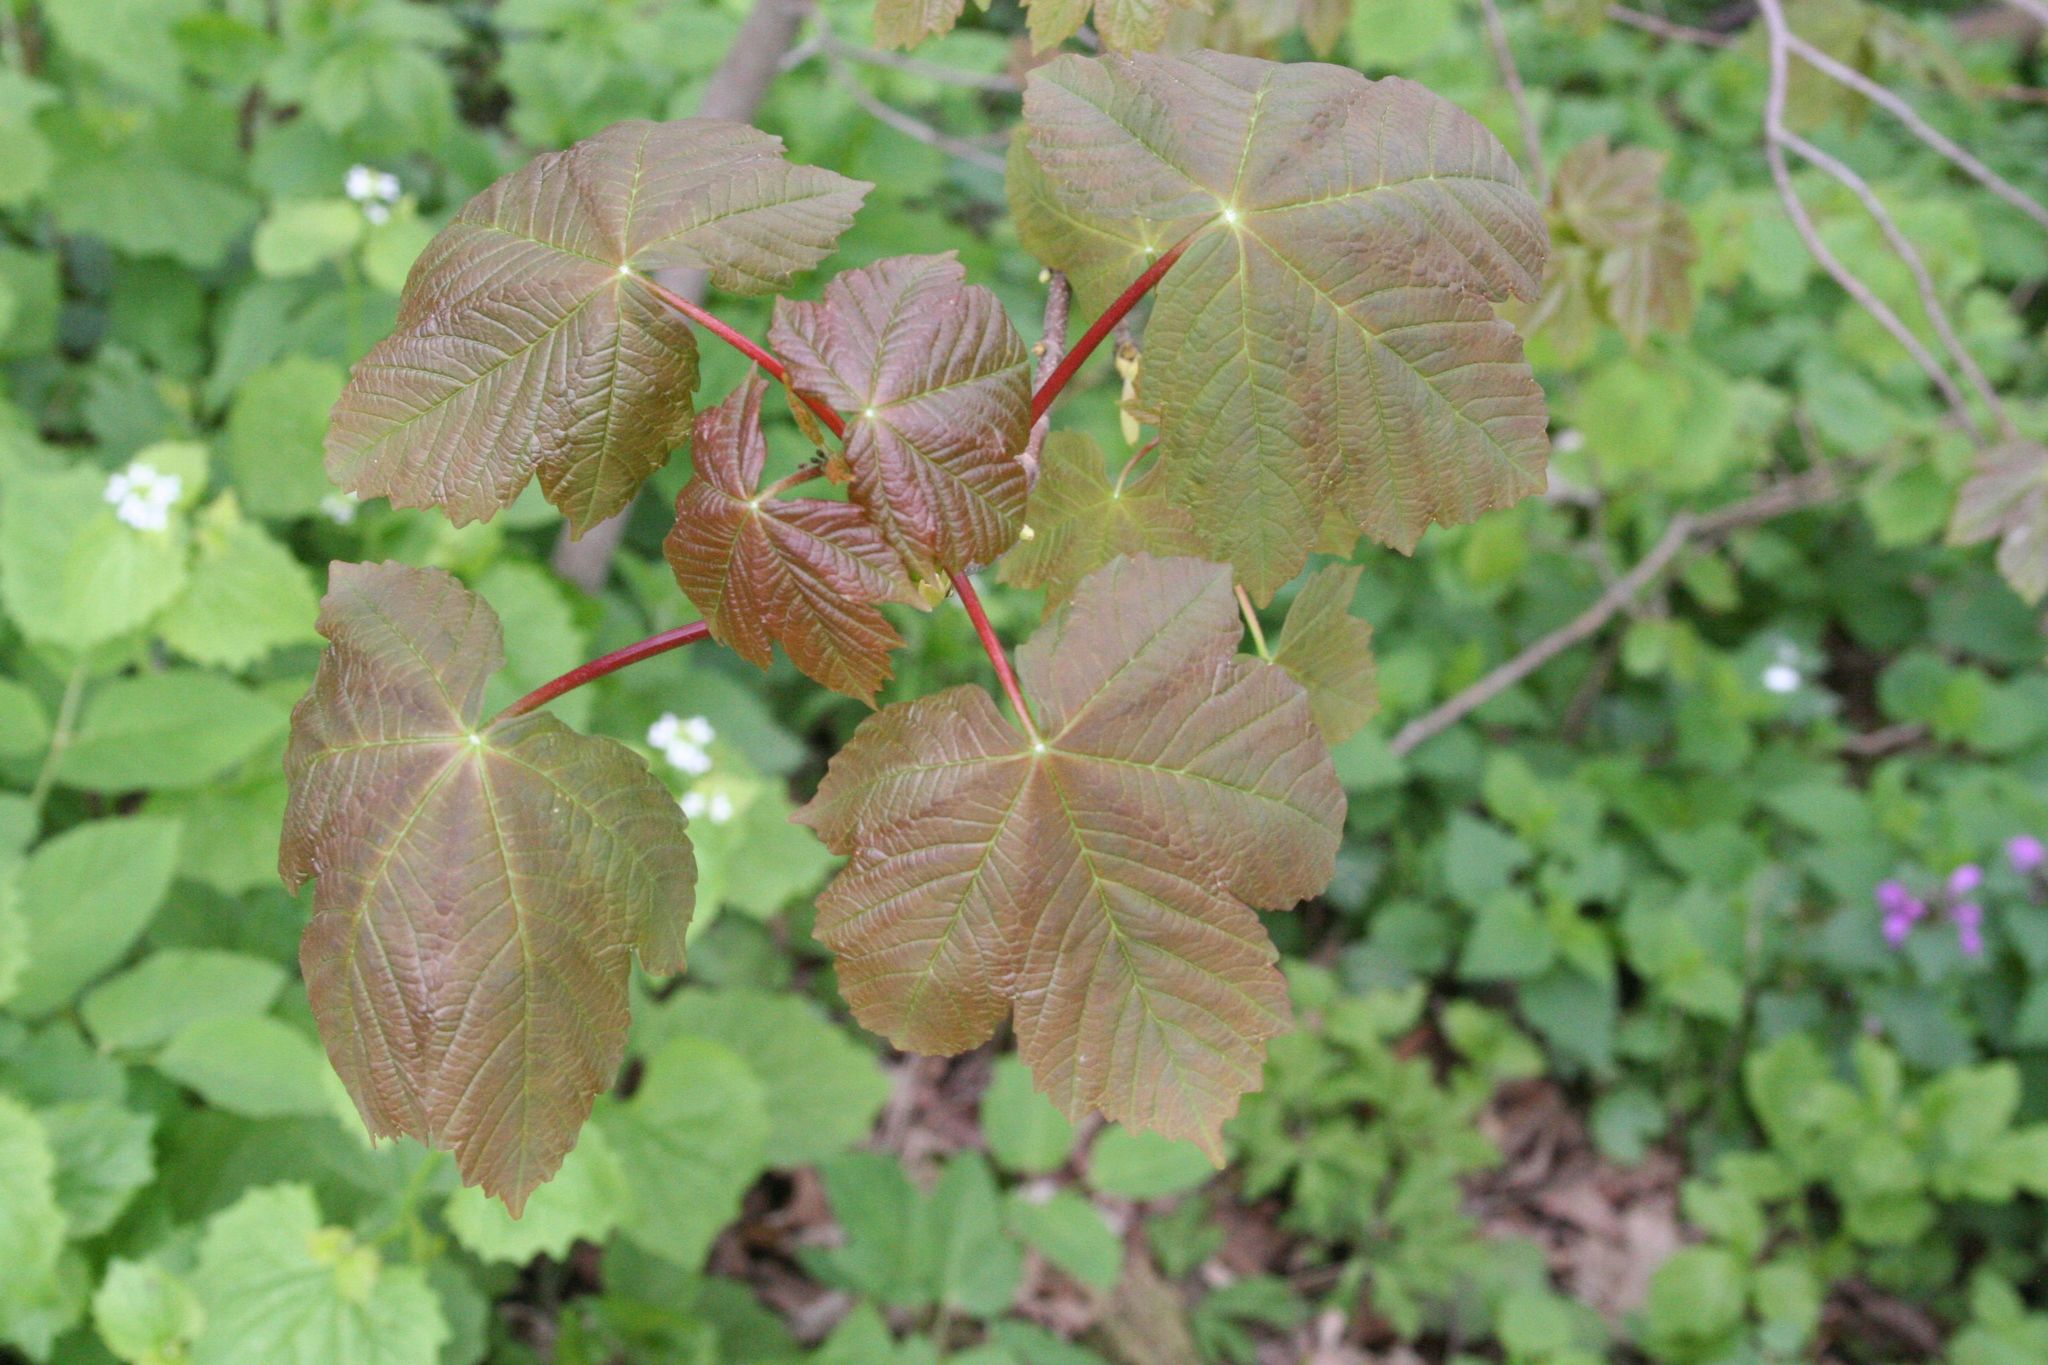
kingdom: Plantae
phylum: Tracheophyta
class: Magnoliopsida
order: Sapindales
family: Sapindaceae
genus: Acer
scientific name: Acer pseudoplatanus
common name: Sycamore
